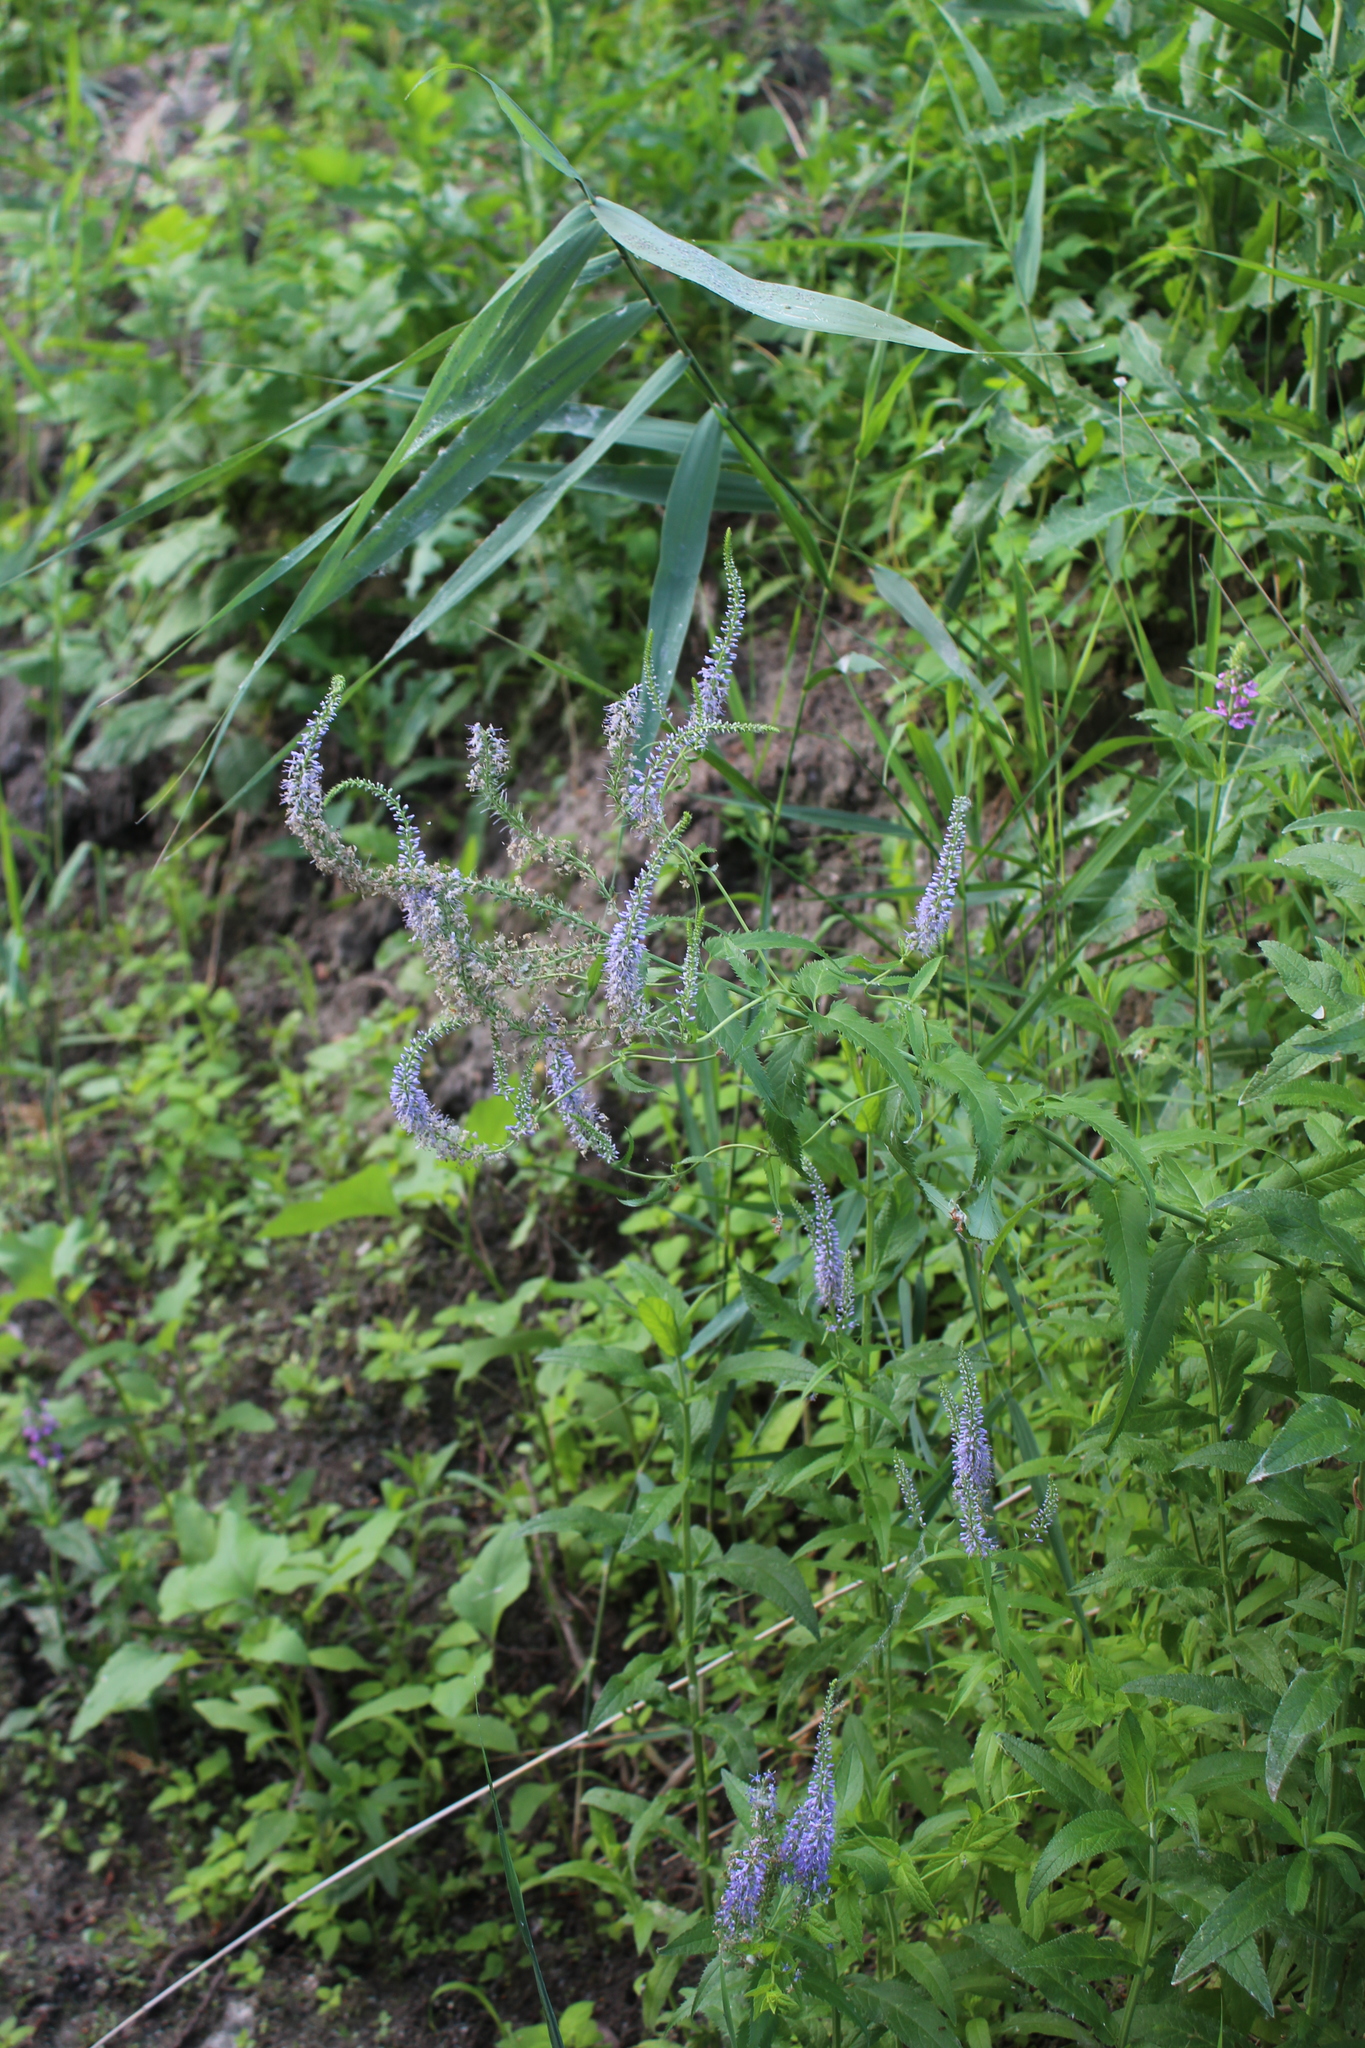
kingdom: Plantae
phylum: Tracheophyta
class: Magnoliopsida
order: Lamiales
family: Plantaginaceae
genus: Veronica
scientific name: Veronica longifolia
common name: Garden speedwell
